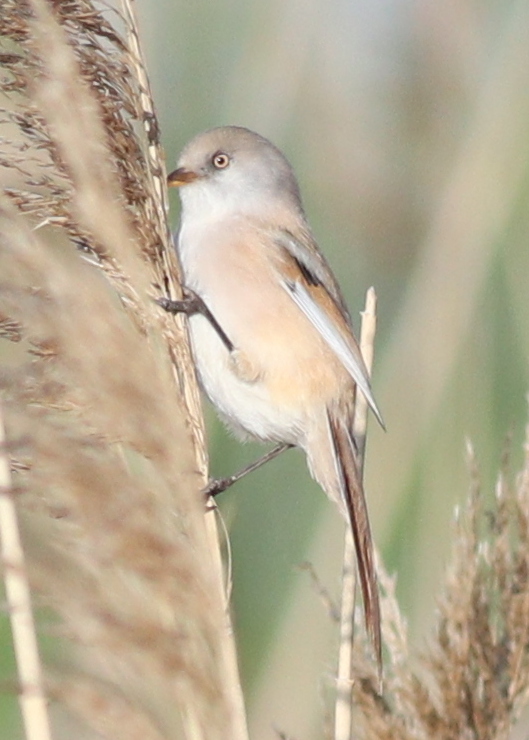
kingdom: Animalia
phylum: Chordata
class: Aves
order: Passeriformes
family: Panuridae
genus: Panurus
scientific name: Panurus biarmicus
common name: Bearded reedling
